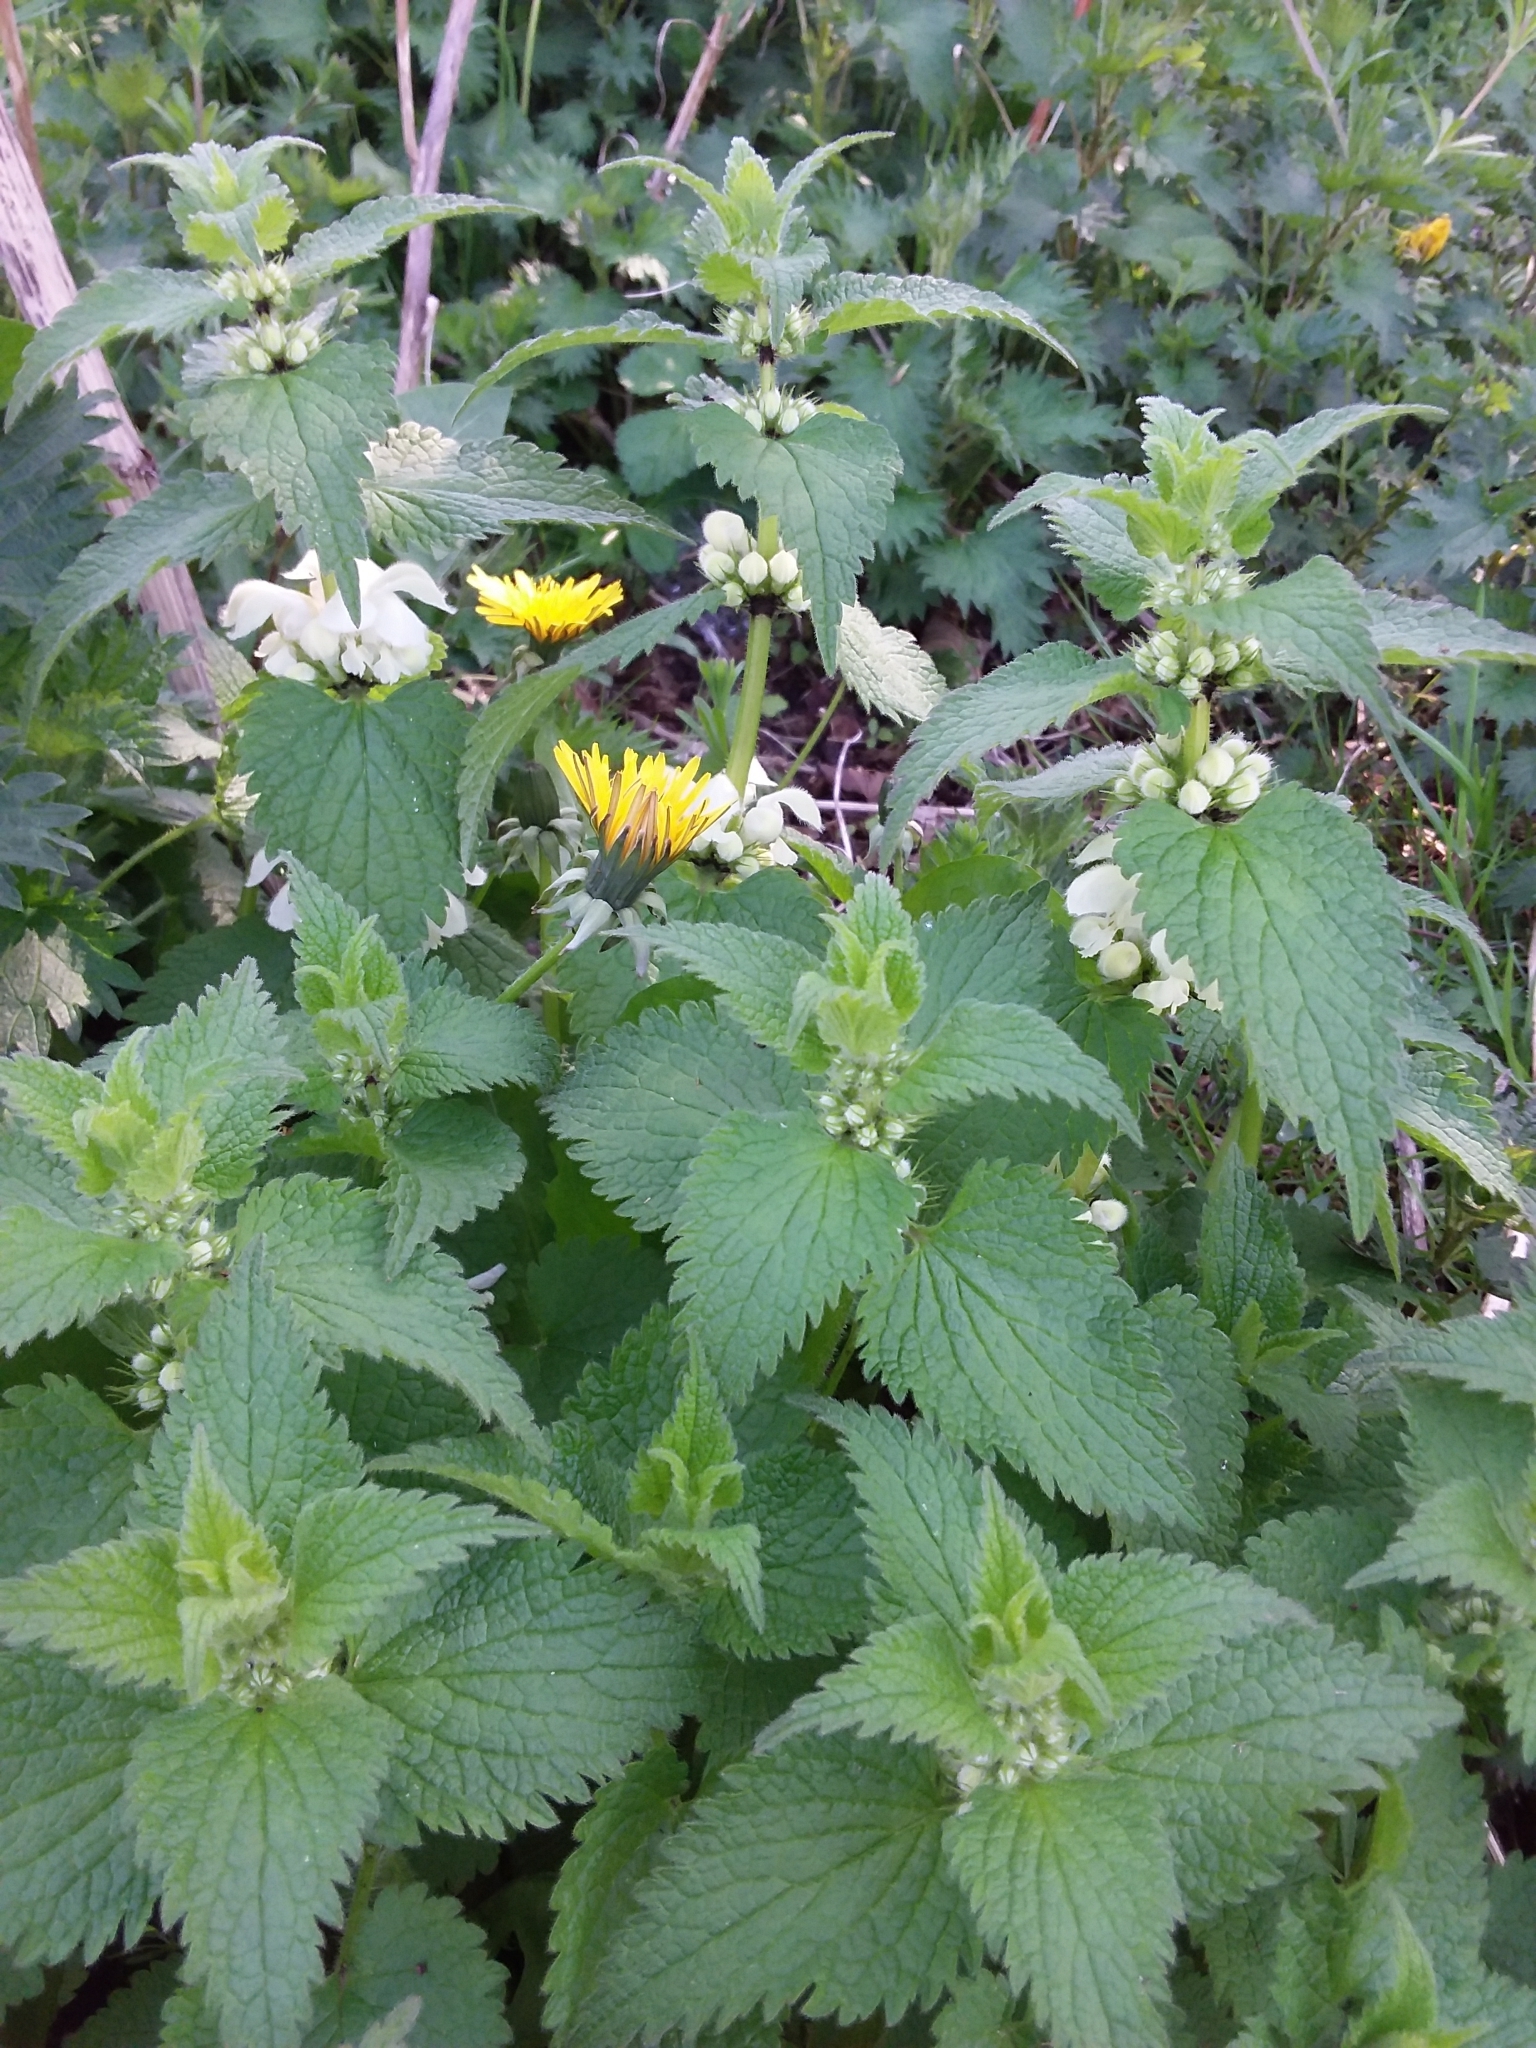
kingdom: Plantae
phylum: Tracheophyta
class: Magnoliopsida
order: Lamiales
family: Lamiaceae
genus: Lamium
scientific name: Lamium album
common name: White dead-nettle
